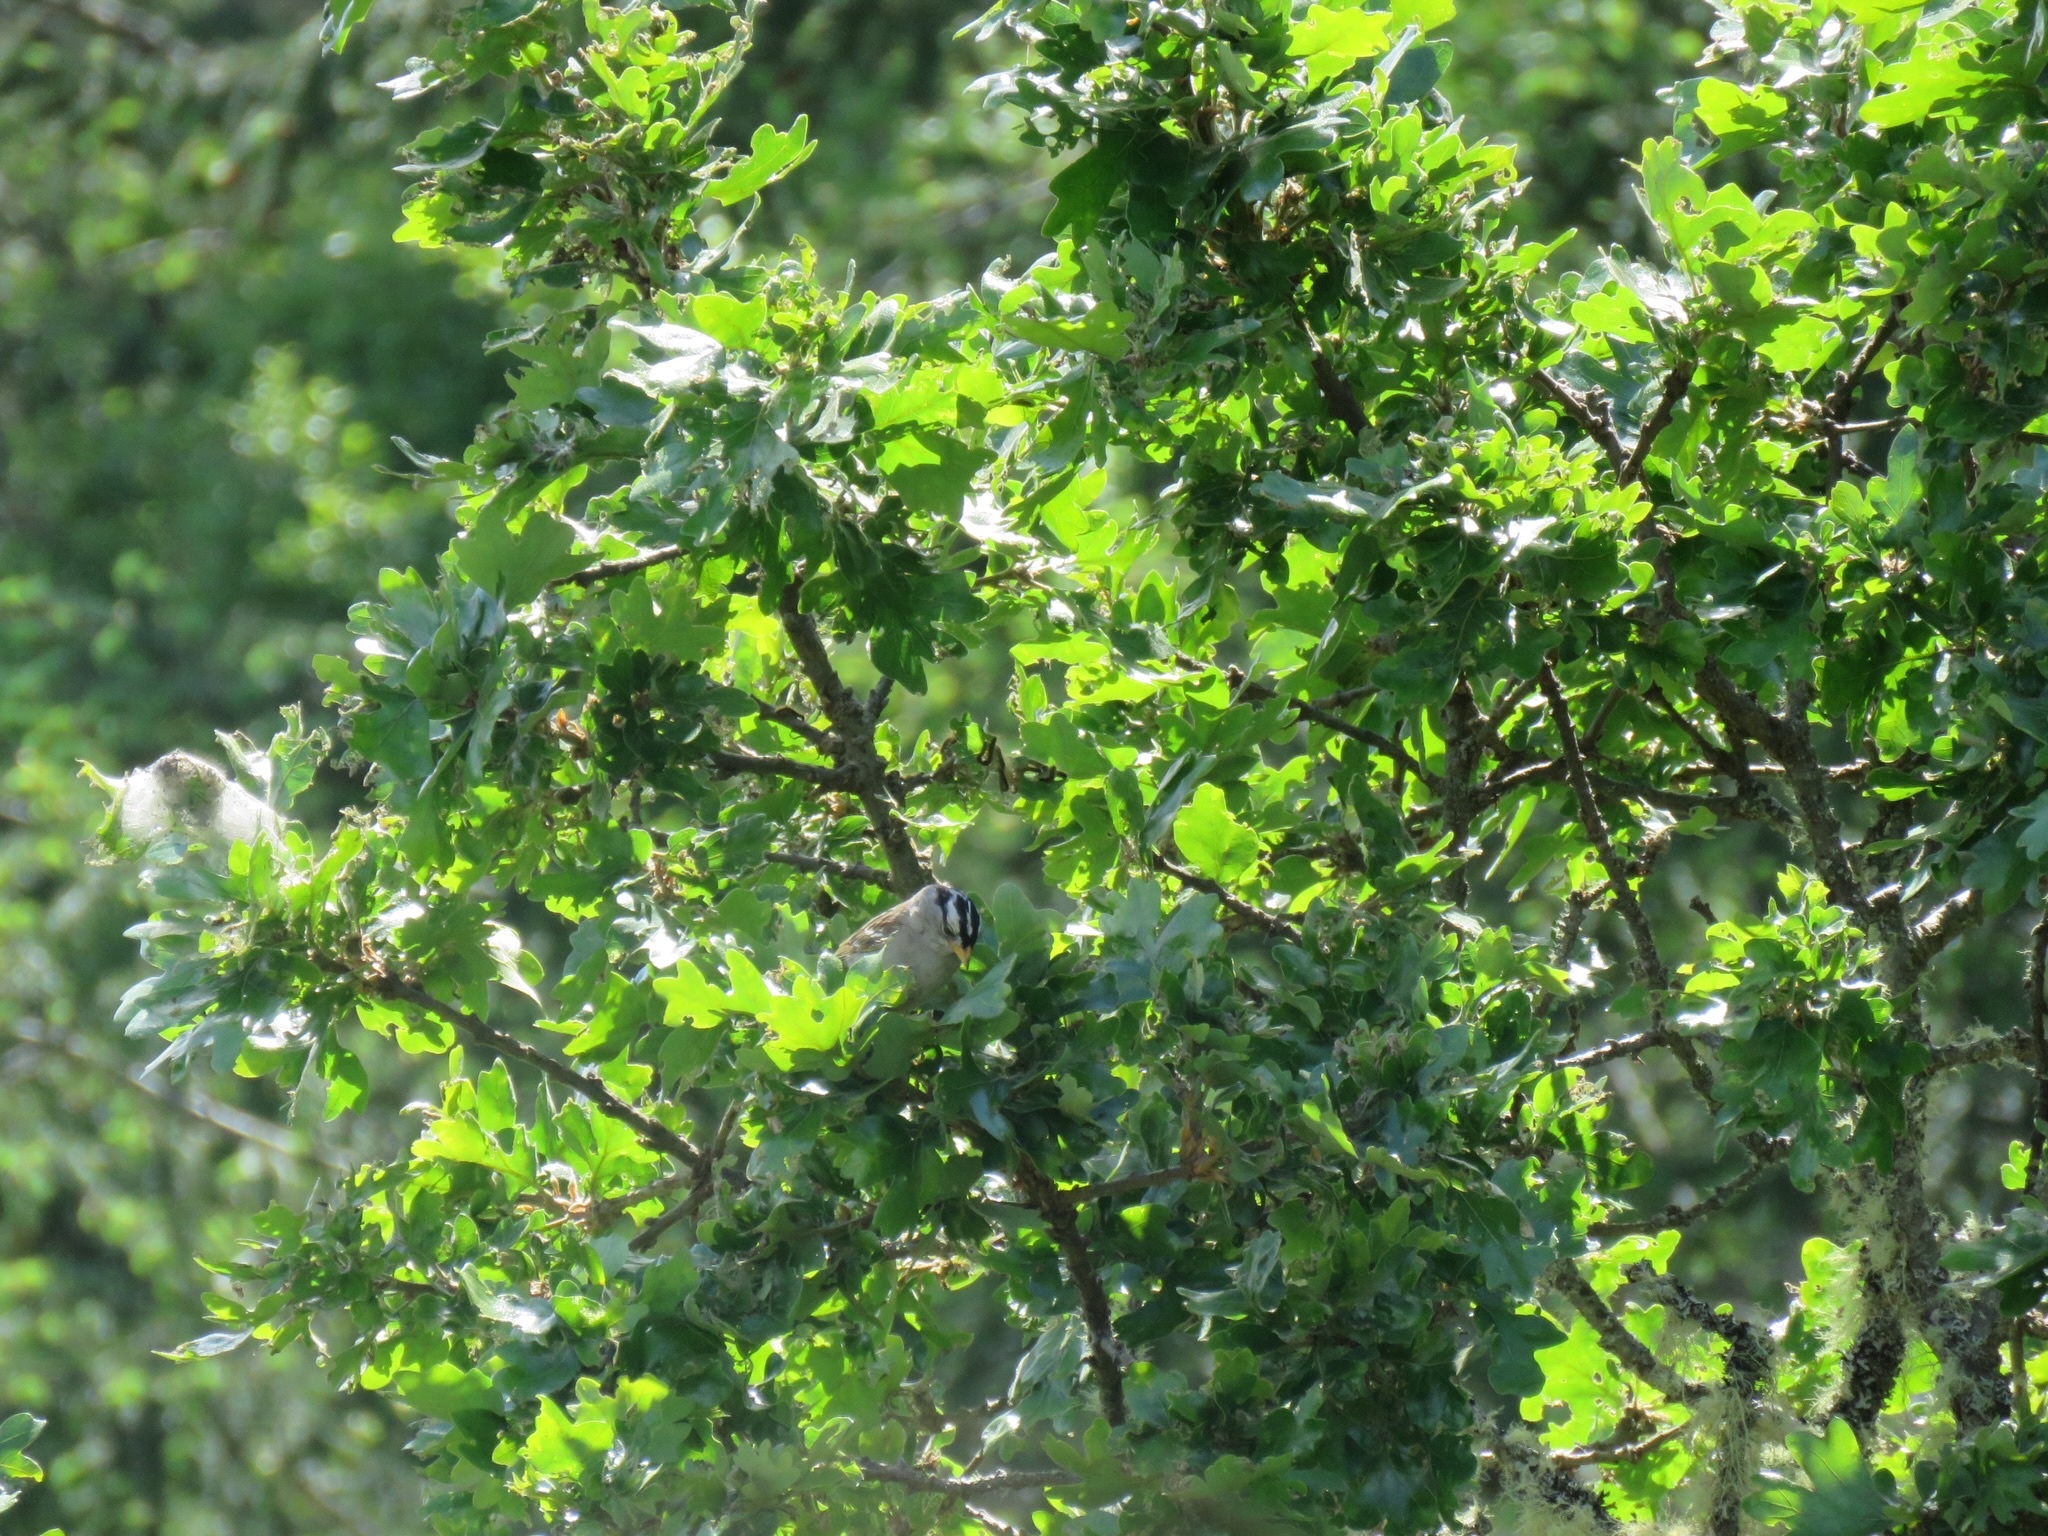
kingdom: Animalia
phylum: Chordata
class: Aves
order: Passeriformes
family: Passerellidae
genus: Zonotrichia
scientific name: Zonotrichia leucophrys
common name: White-crowned sparrow
